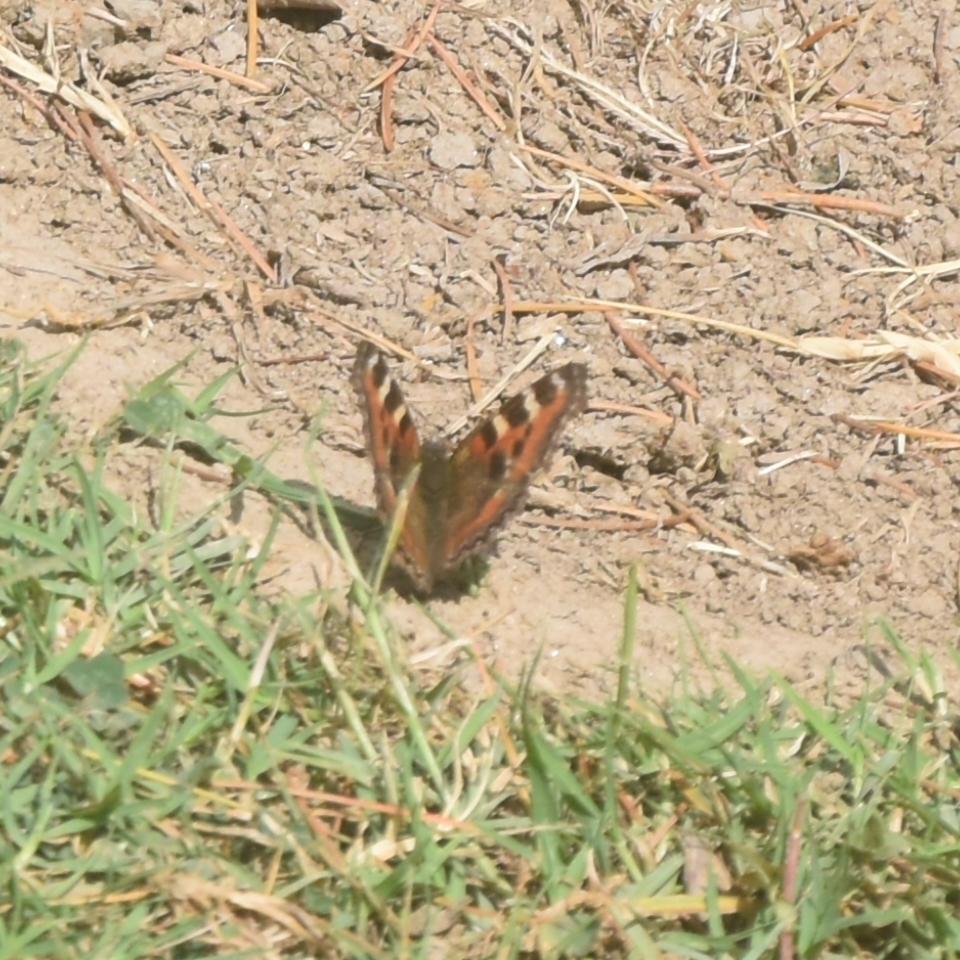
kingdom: Animalia
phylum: Arthropoda
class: Insecta
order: Lepidoptera
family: Nymphalidae
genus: Aglais
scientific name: Aglais caschmirensis
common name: Indian tortoiseshell
